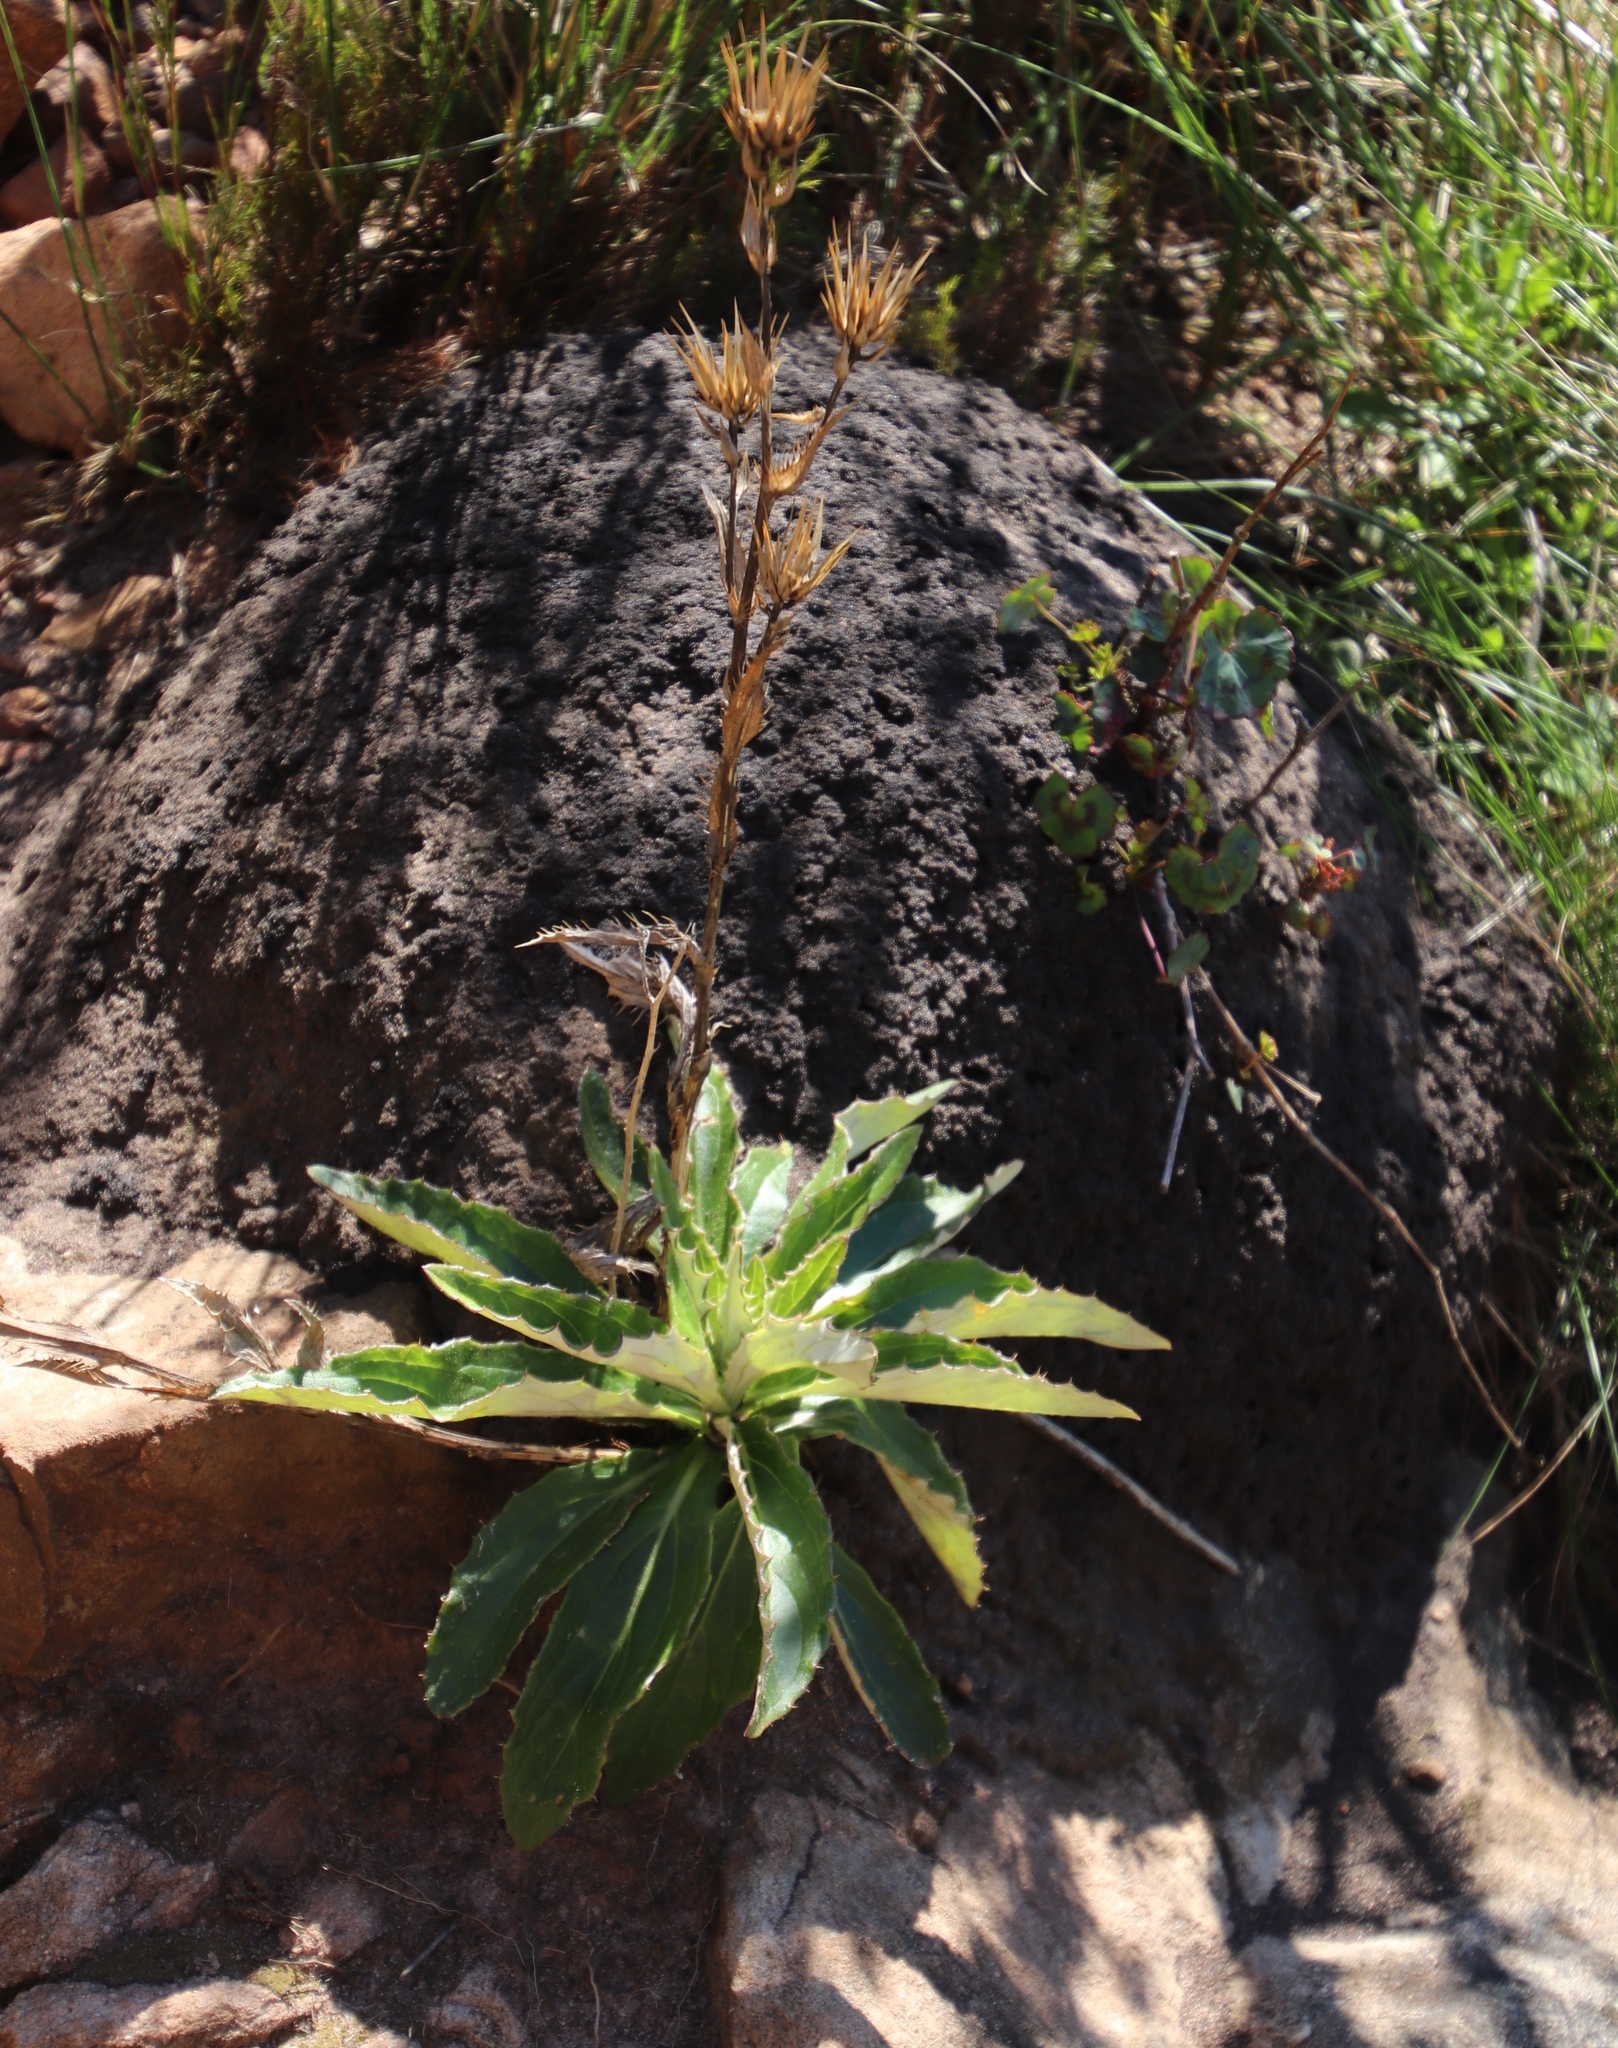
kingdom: Plantae
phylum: Tracheophyta
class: Magnoliopsida
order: Asterales
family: Asteraceae
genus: Berkheya
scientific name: Berkheya herbacea
